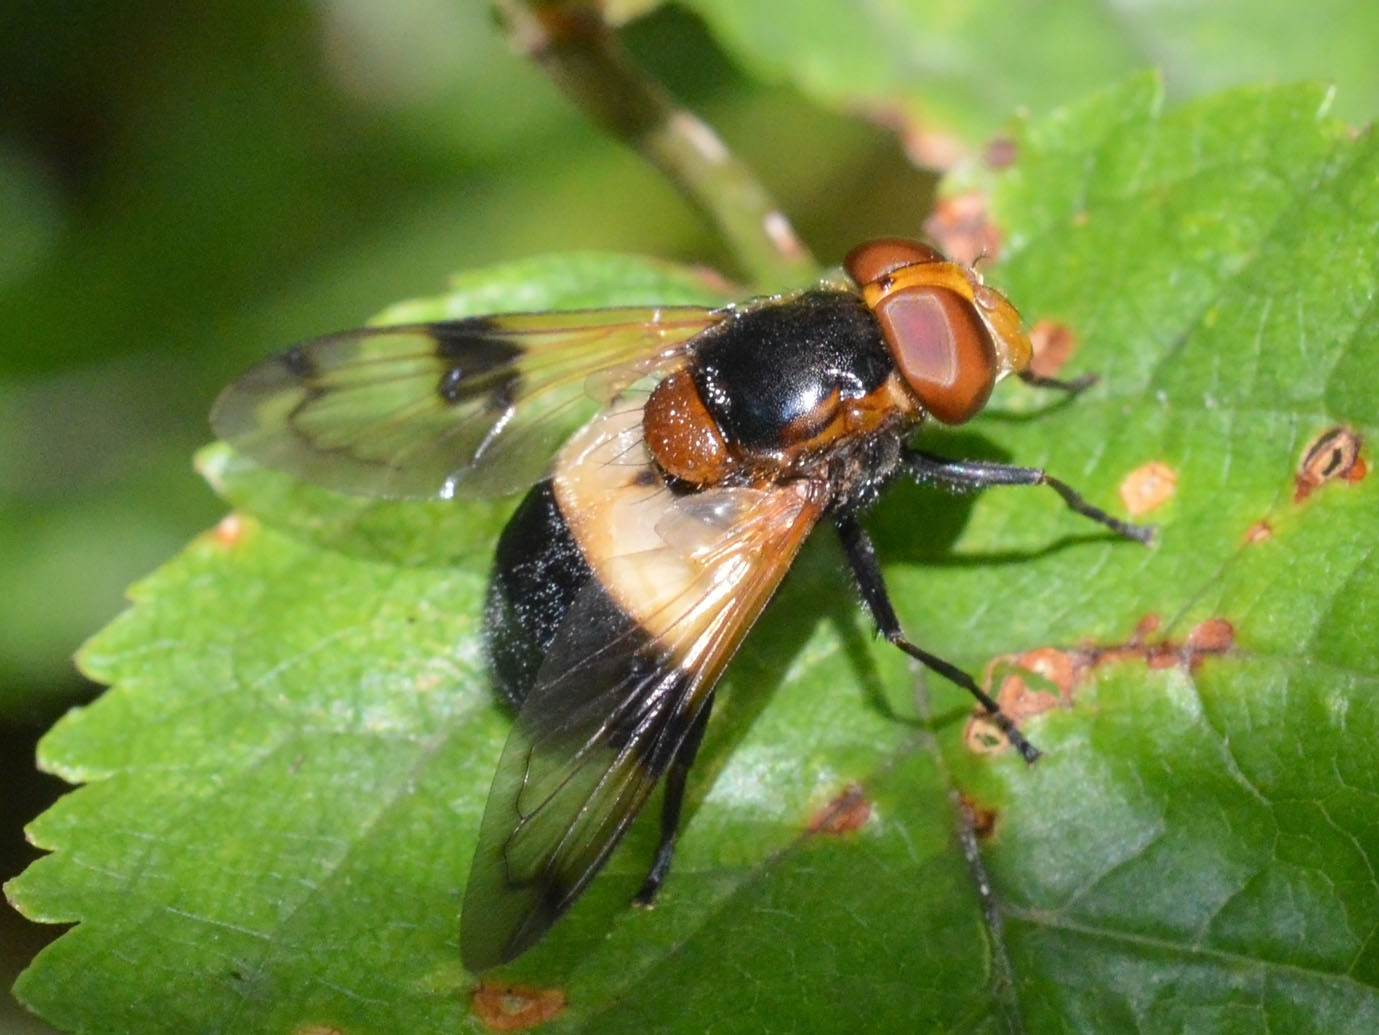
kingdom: Animalia
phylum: Arthropoda
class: Insecta
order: Diptera
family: Syrphidae
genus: Volucella
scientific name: Volucella pellucens
